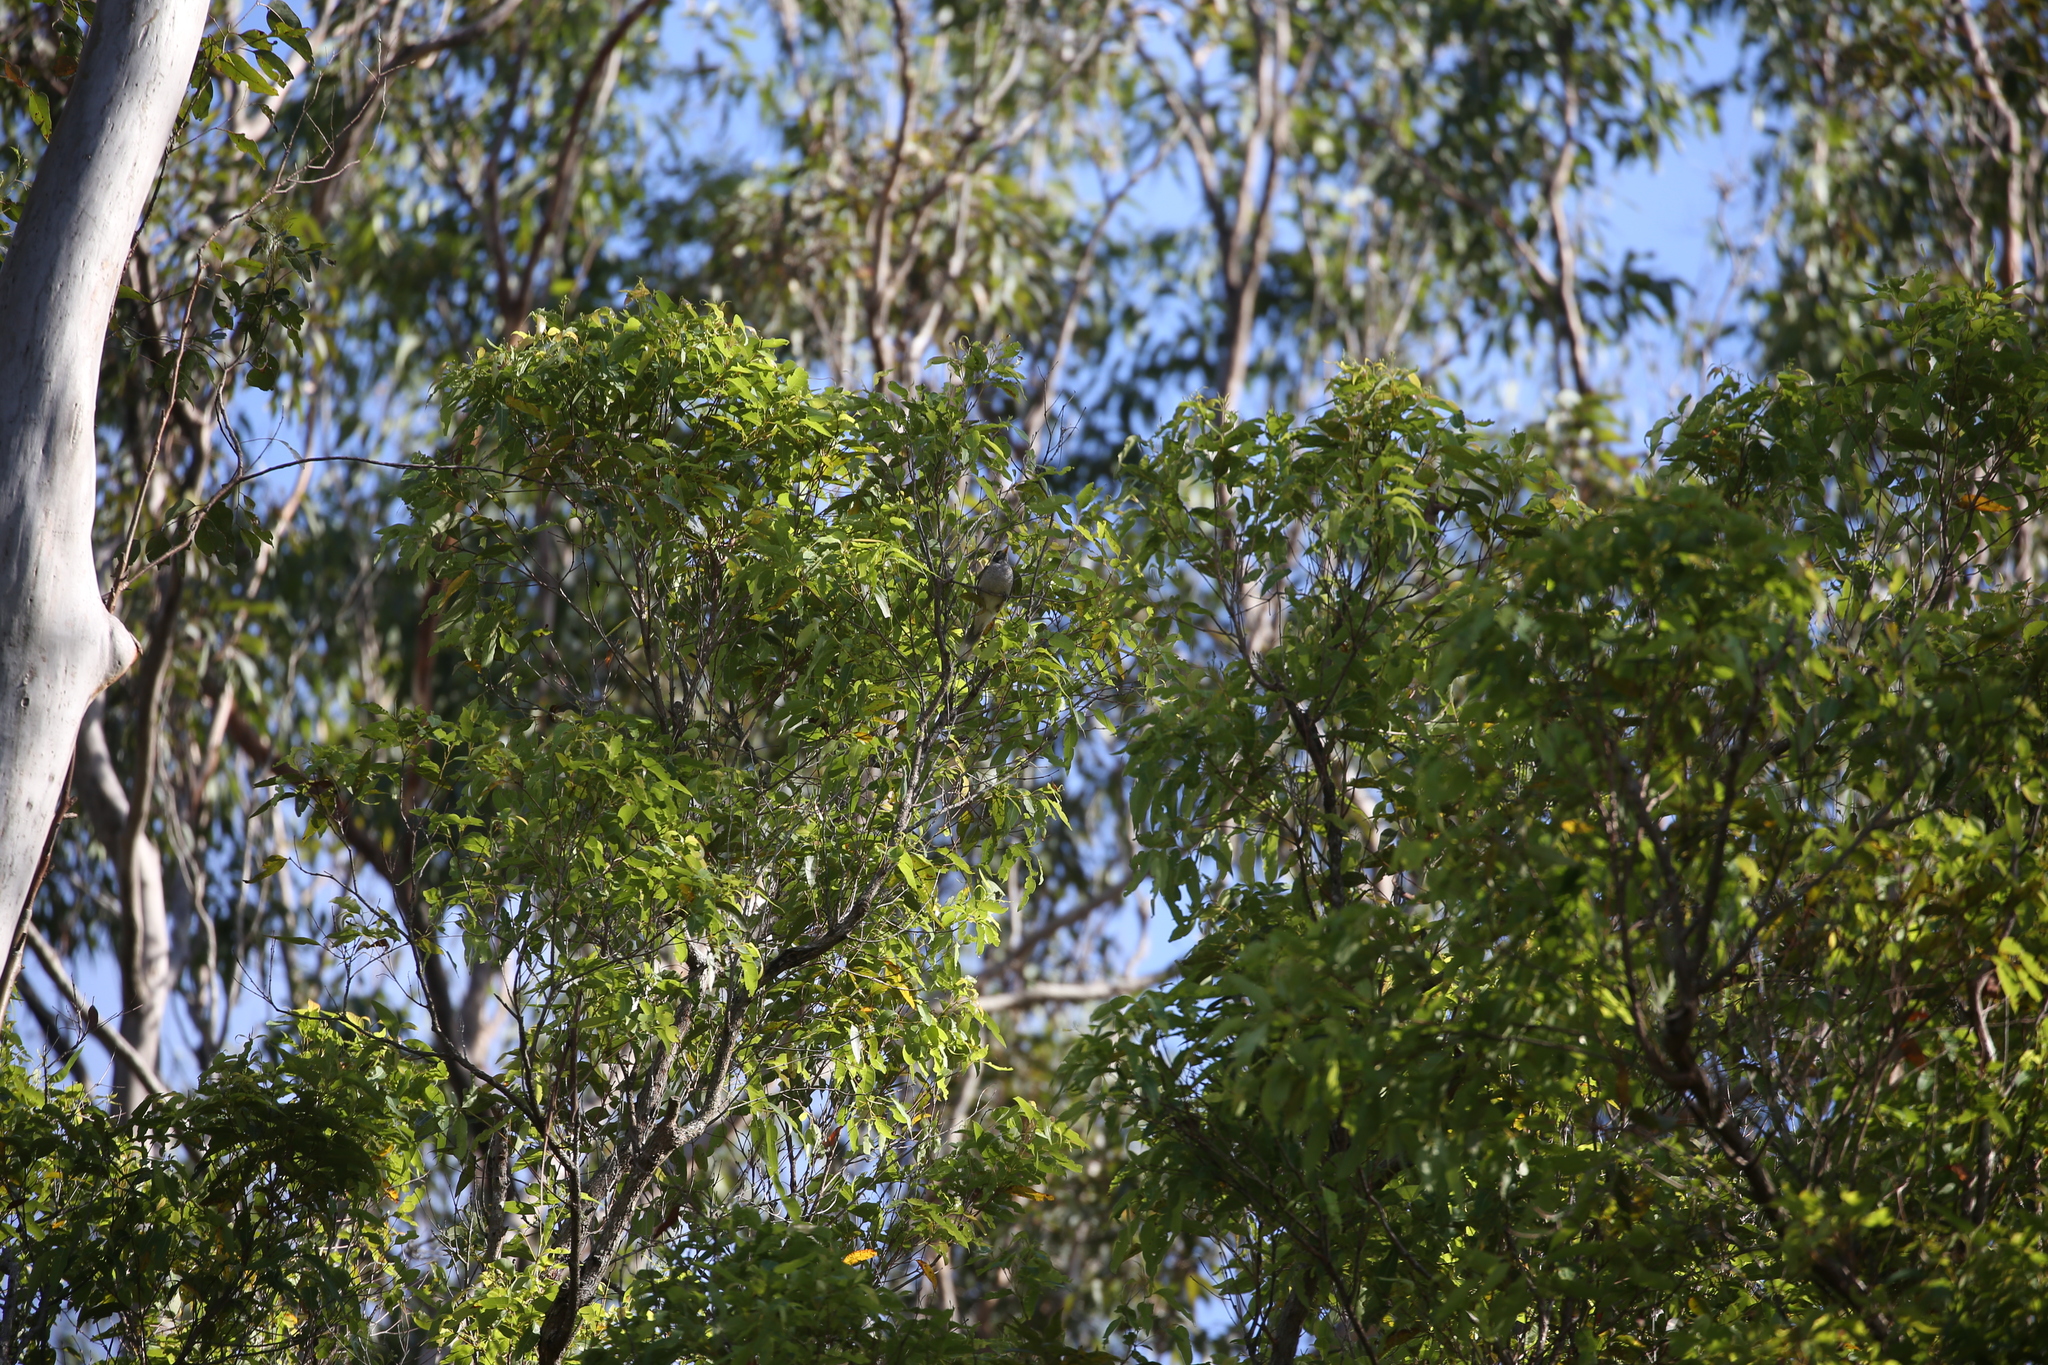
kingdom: Animalia
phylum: Chordata
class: Aves
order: Passeriformes
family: Meliphagidae
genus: Manorina
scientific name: Manorina melanocephala
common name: Noisy miner
